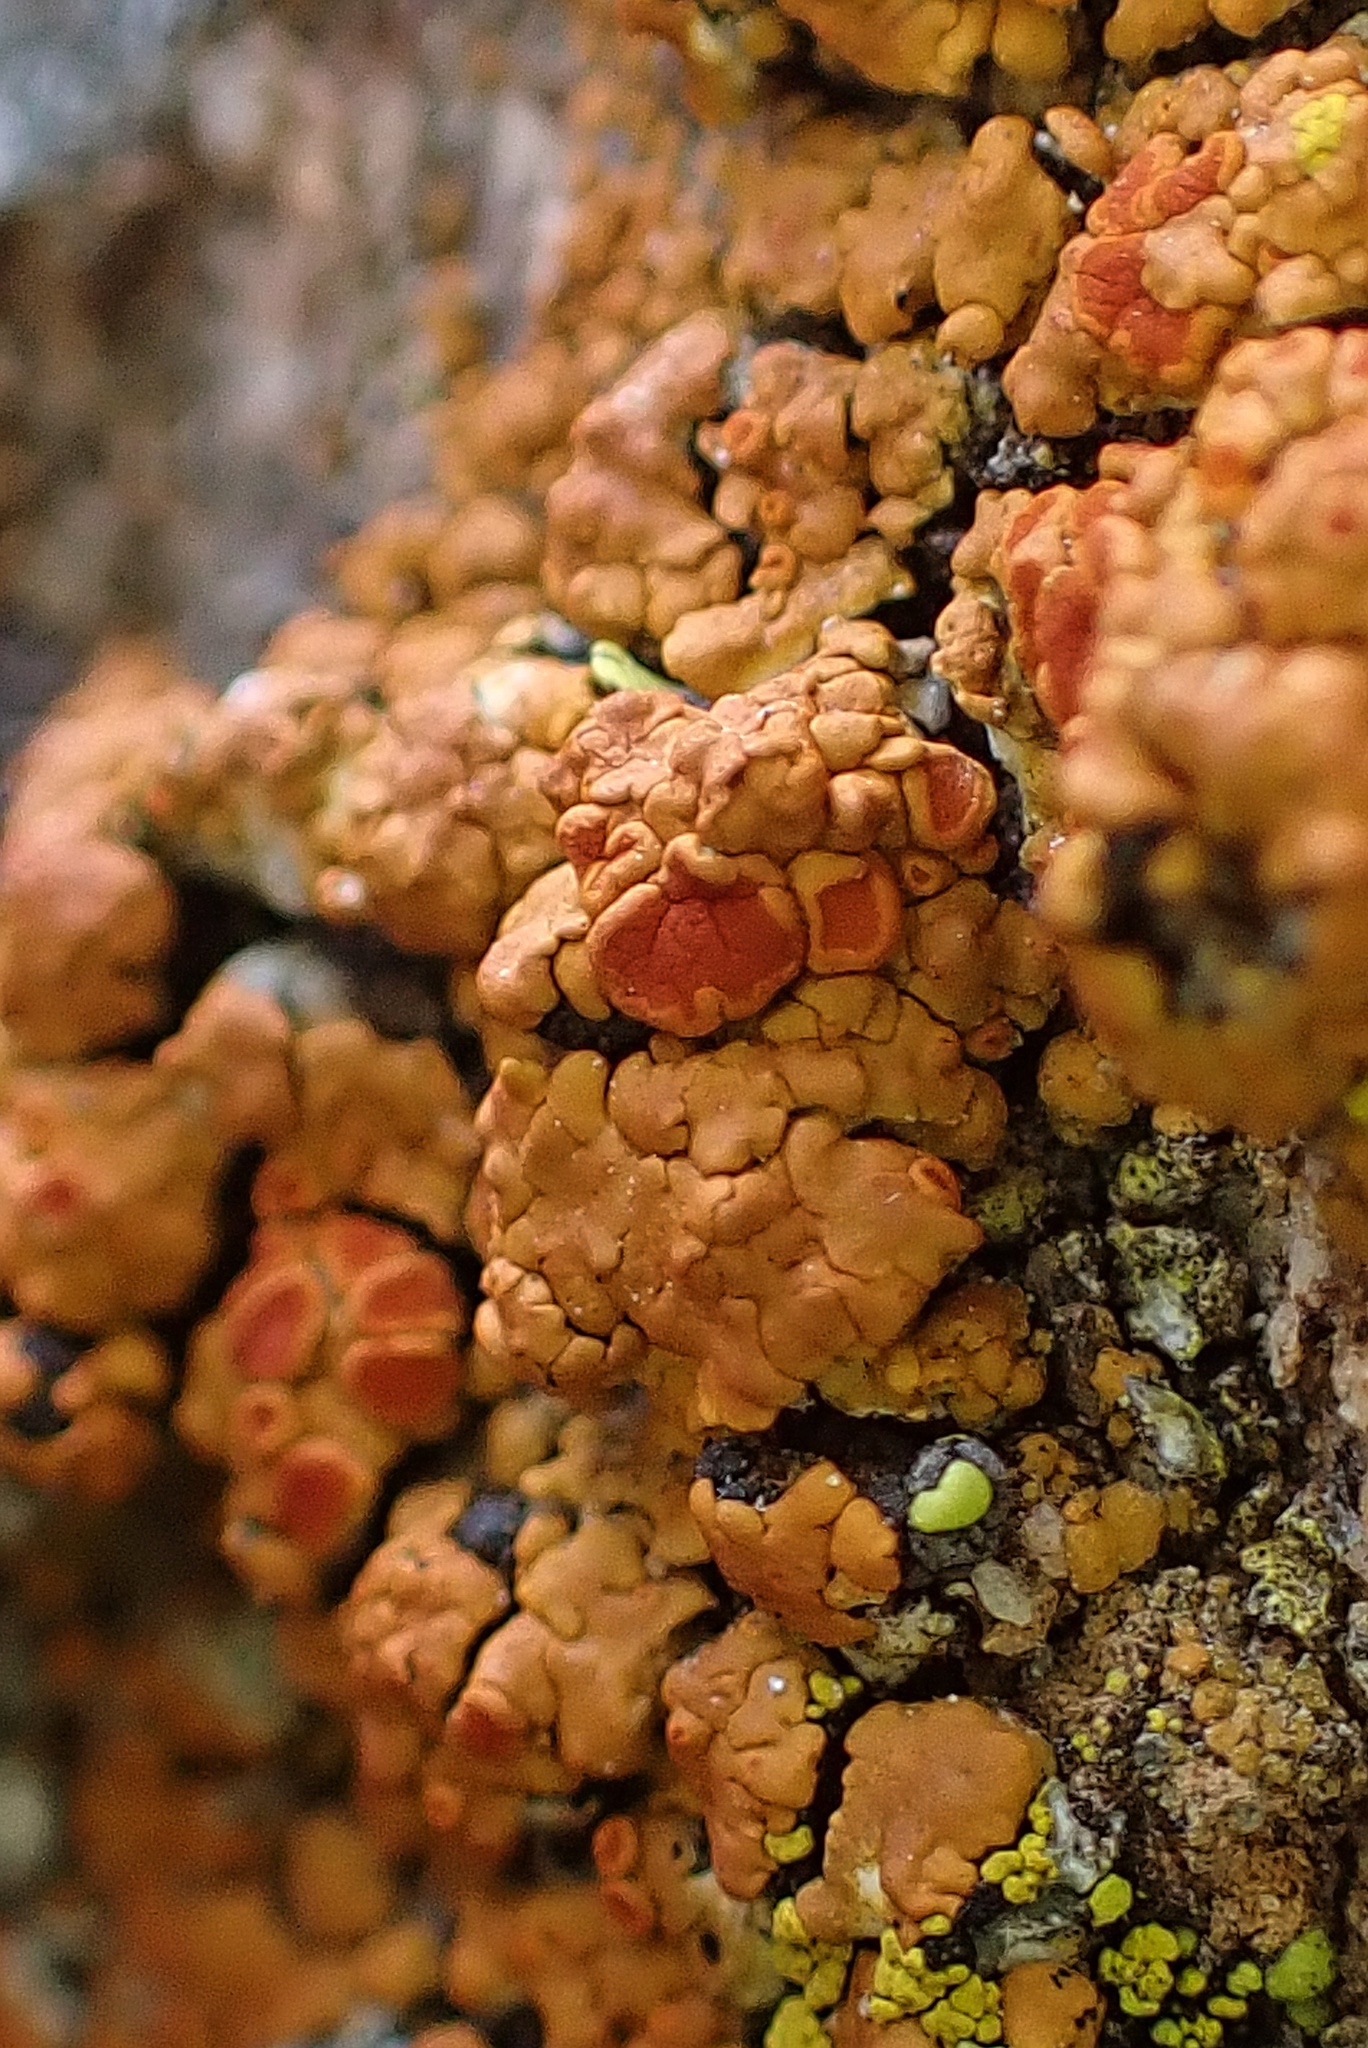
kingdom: Fungi
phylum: Ascomycota
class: Lecanoromycetes
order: Teloschistales
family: Teloschistaceae
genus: Squamulea
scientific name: Squamulea squamosa
